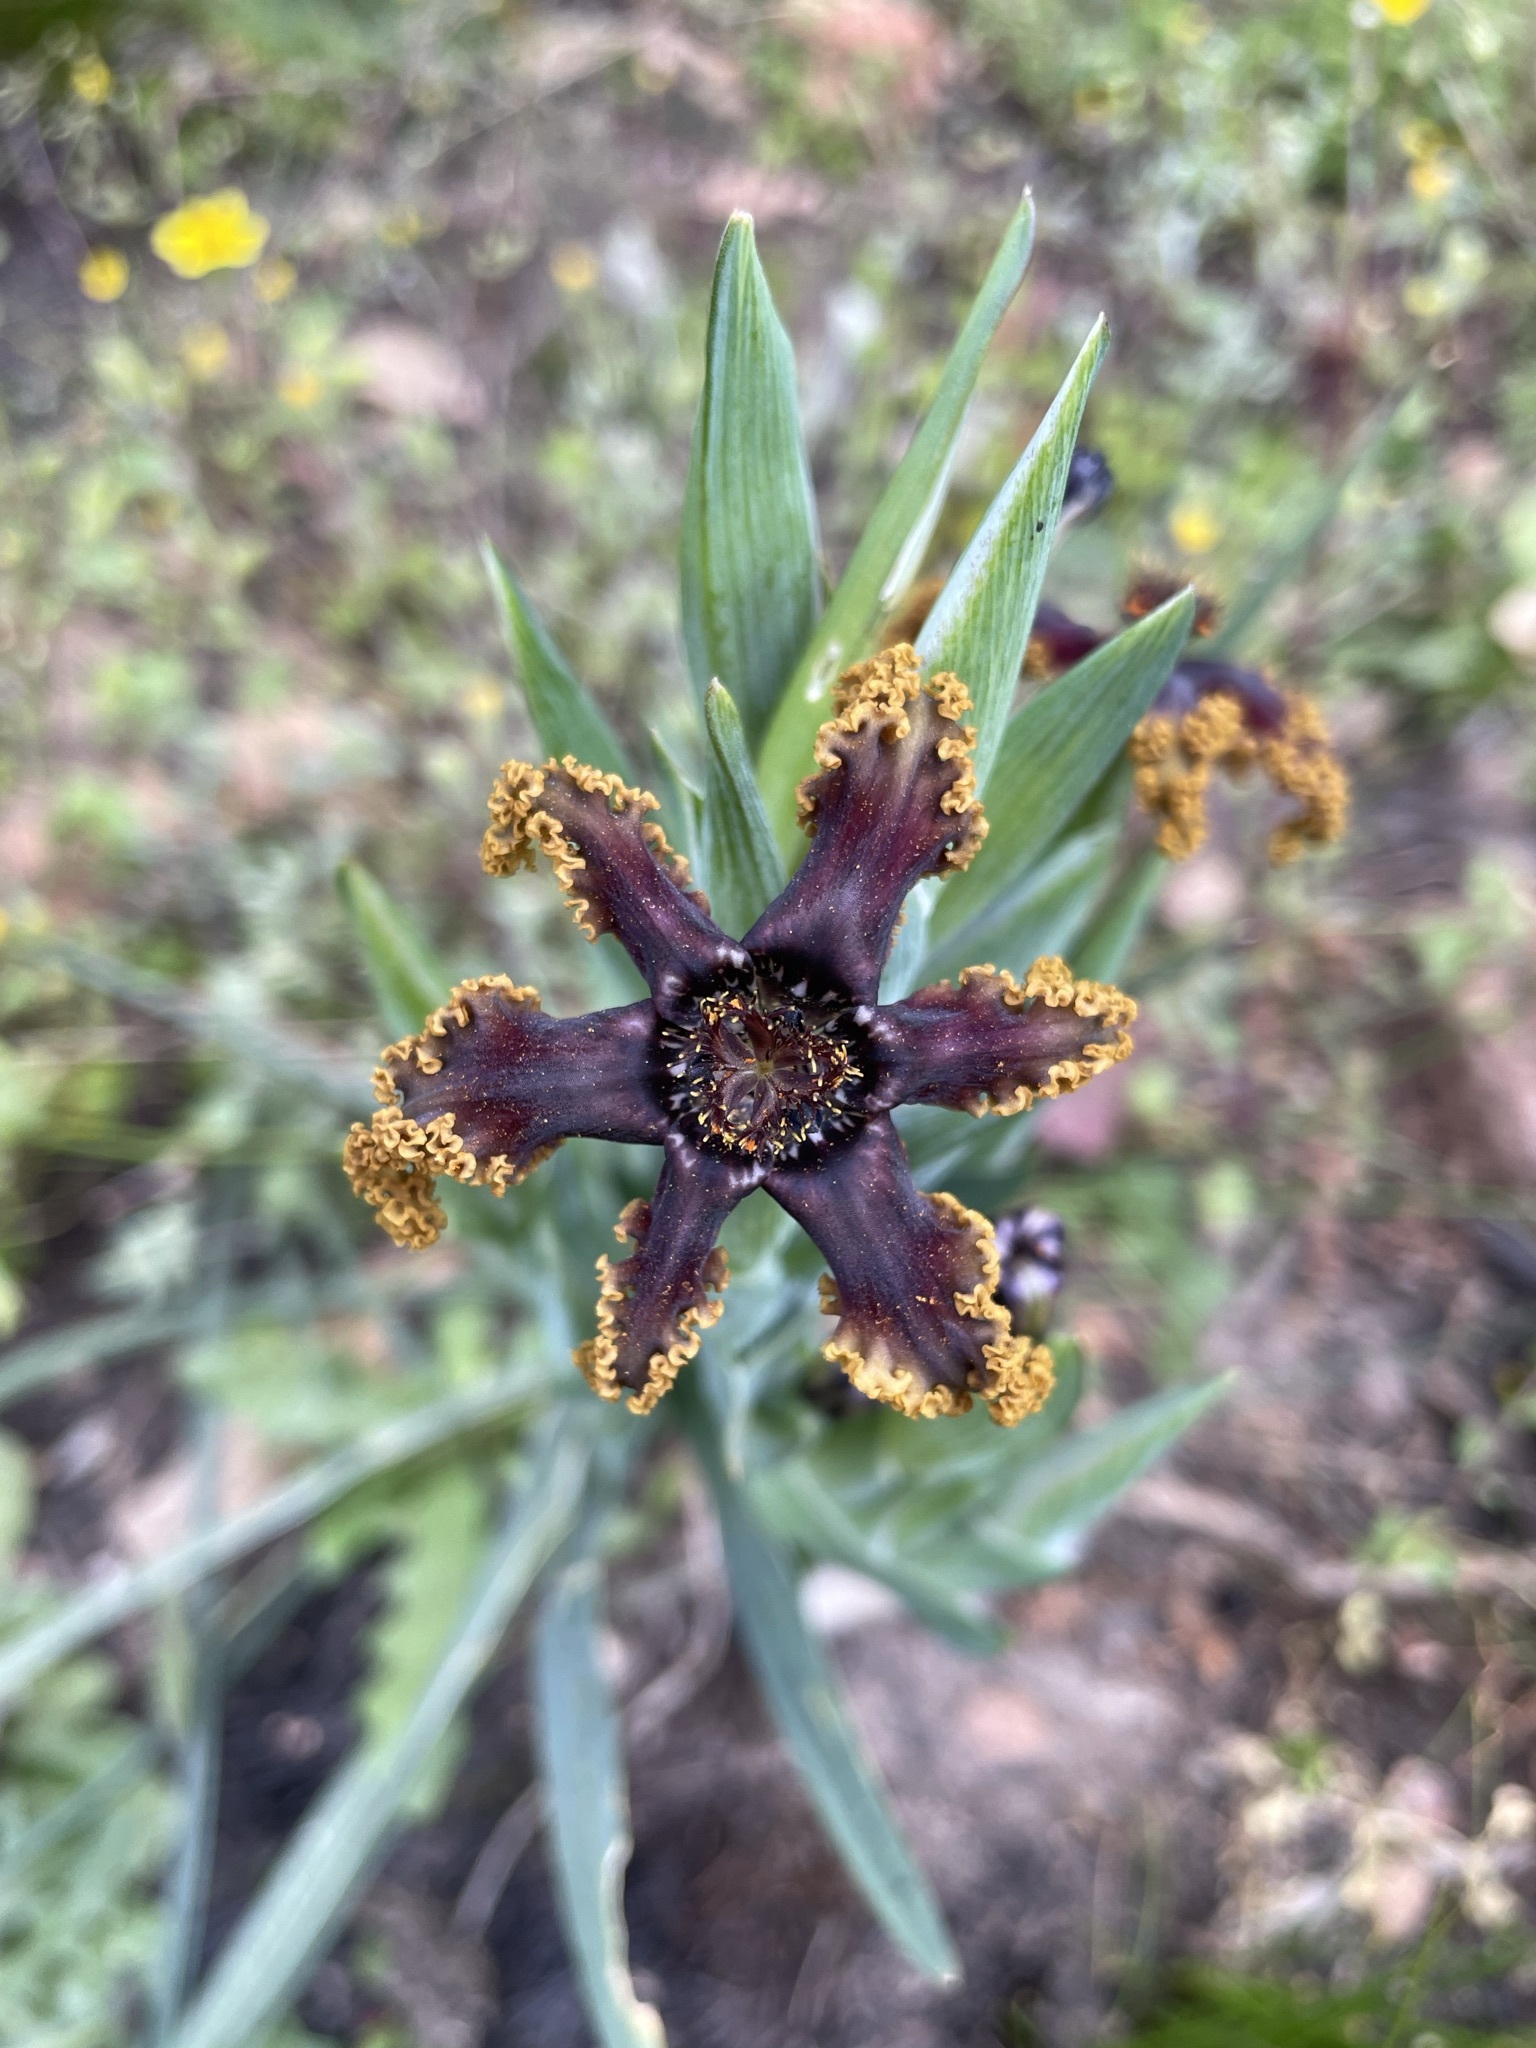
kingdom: Plantae
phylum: Tracheophyta
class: Liliopsida
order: Asparagales
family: Iridaceae
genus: Ferraria
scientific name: Ferraria crispa
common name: Black-flag
